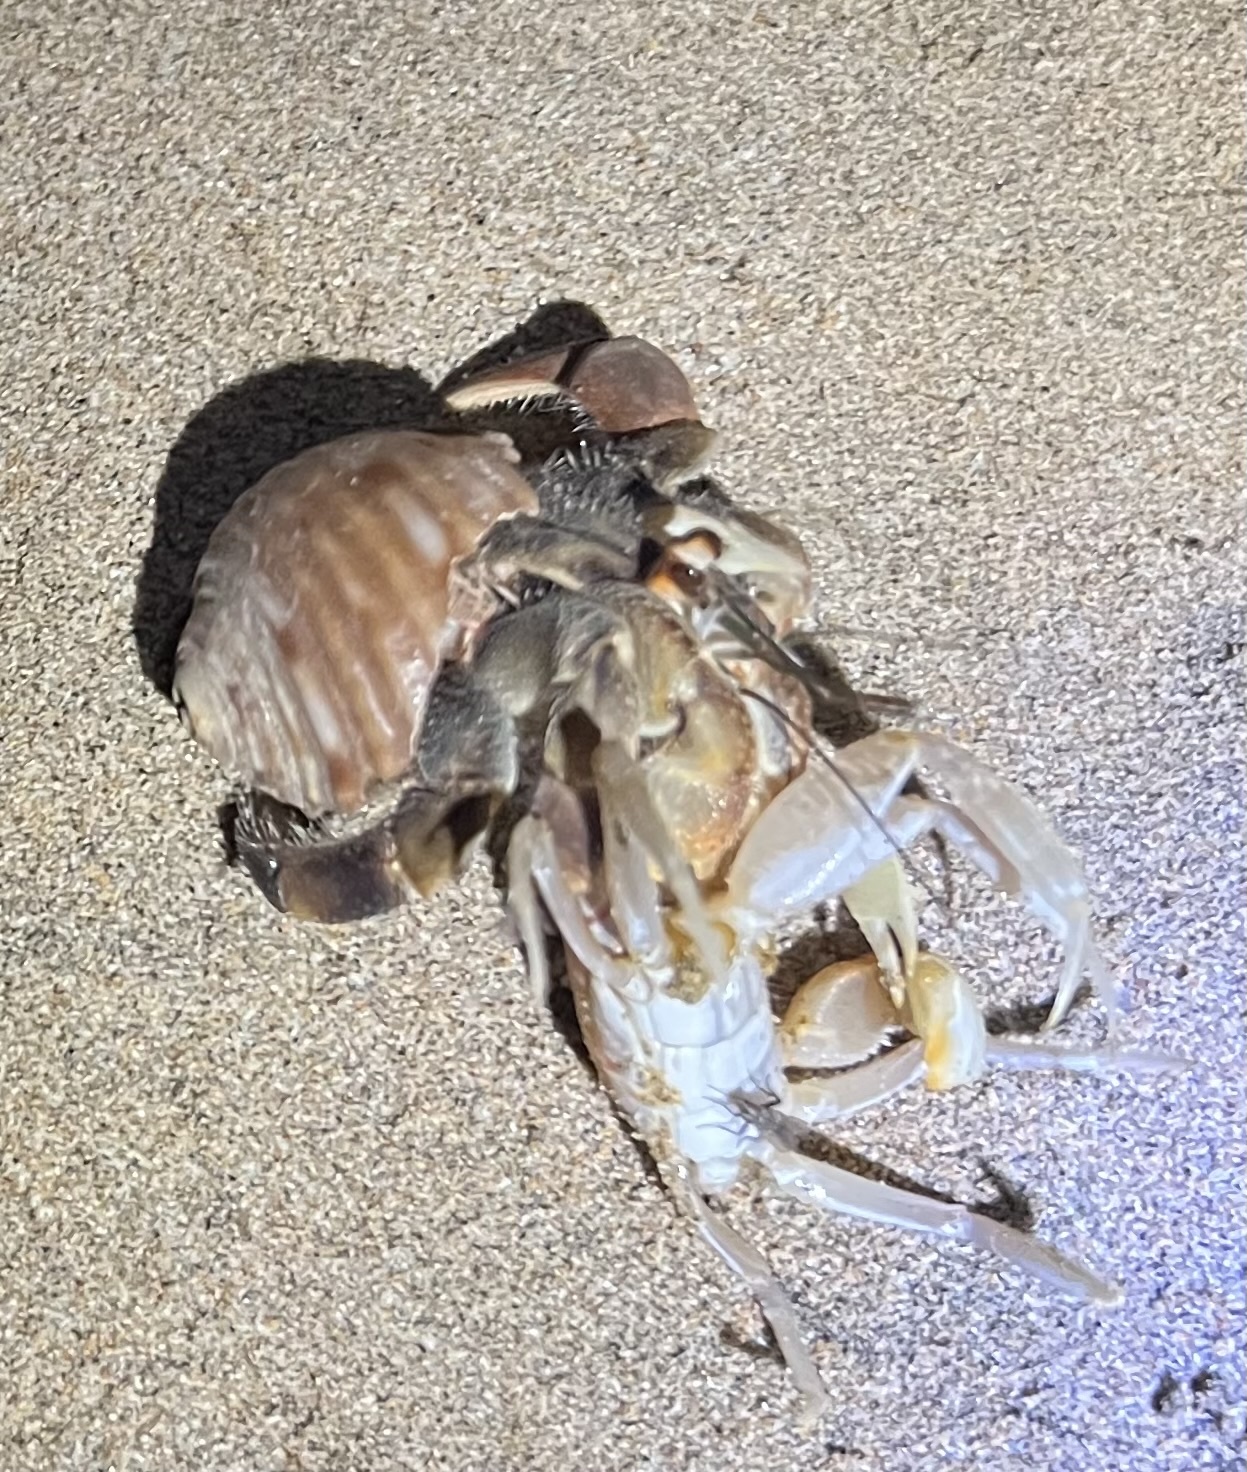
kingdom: Animalia
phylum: Arthropoda
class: Malacostraca
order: Decapoda
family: Coenobitidae
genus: Coenobita
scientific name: Coenobita compressus
